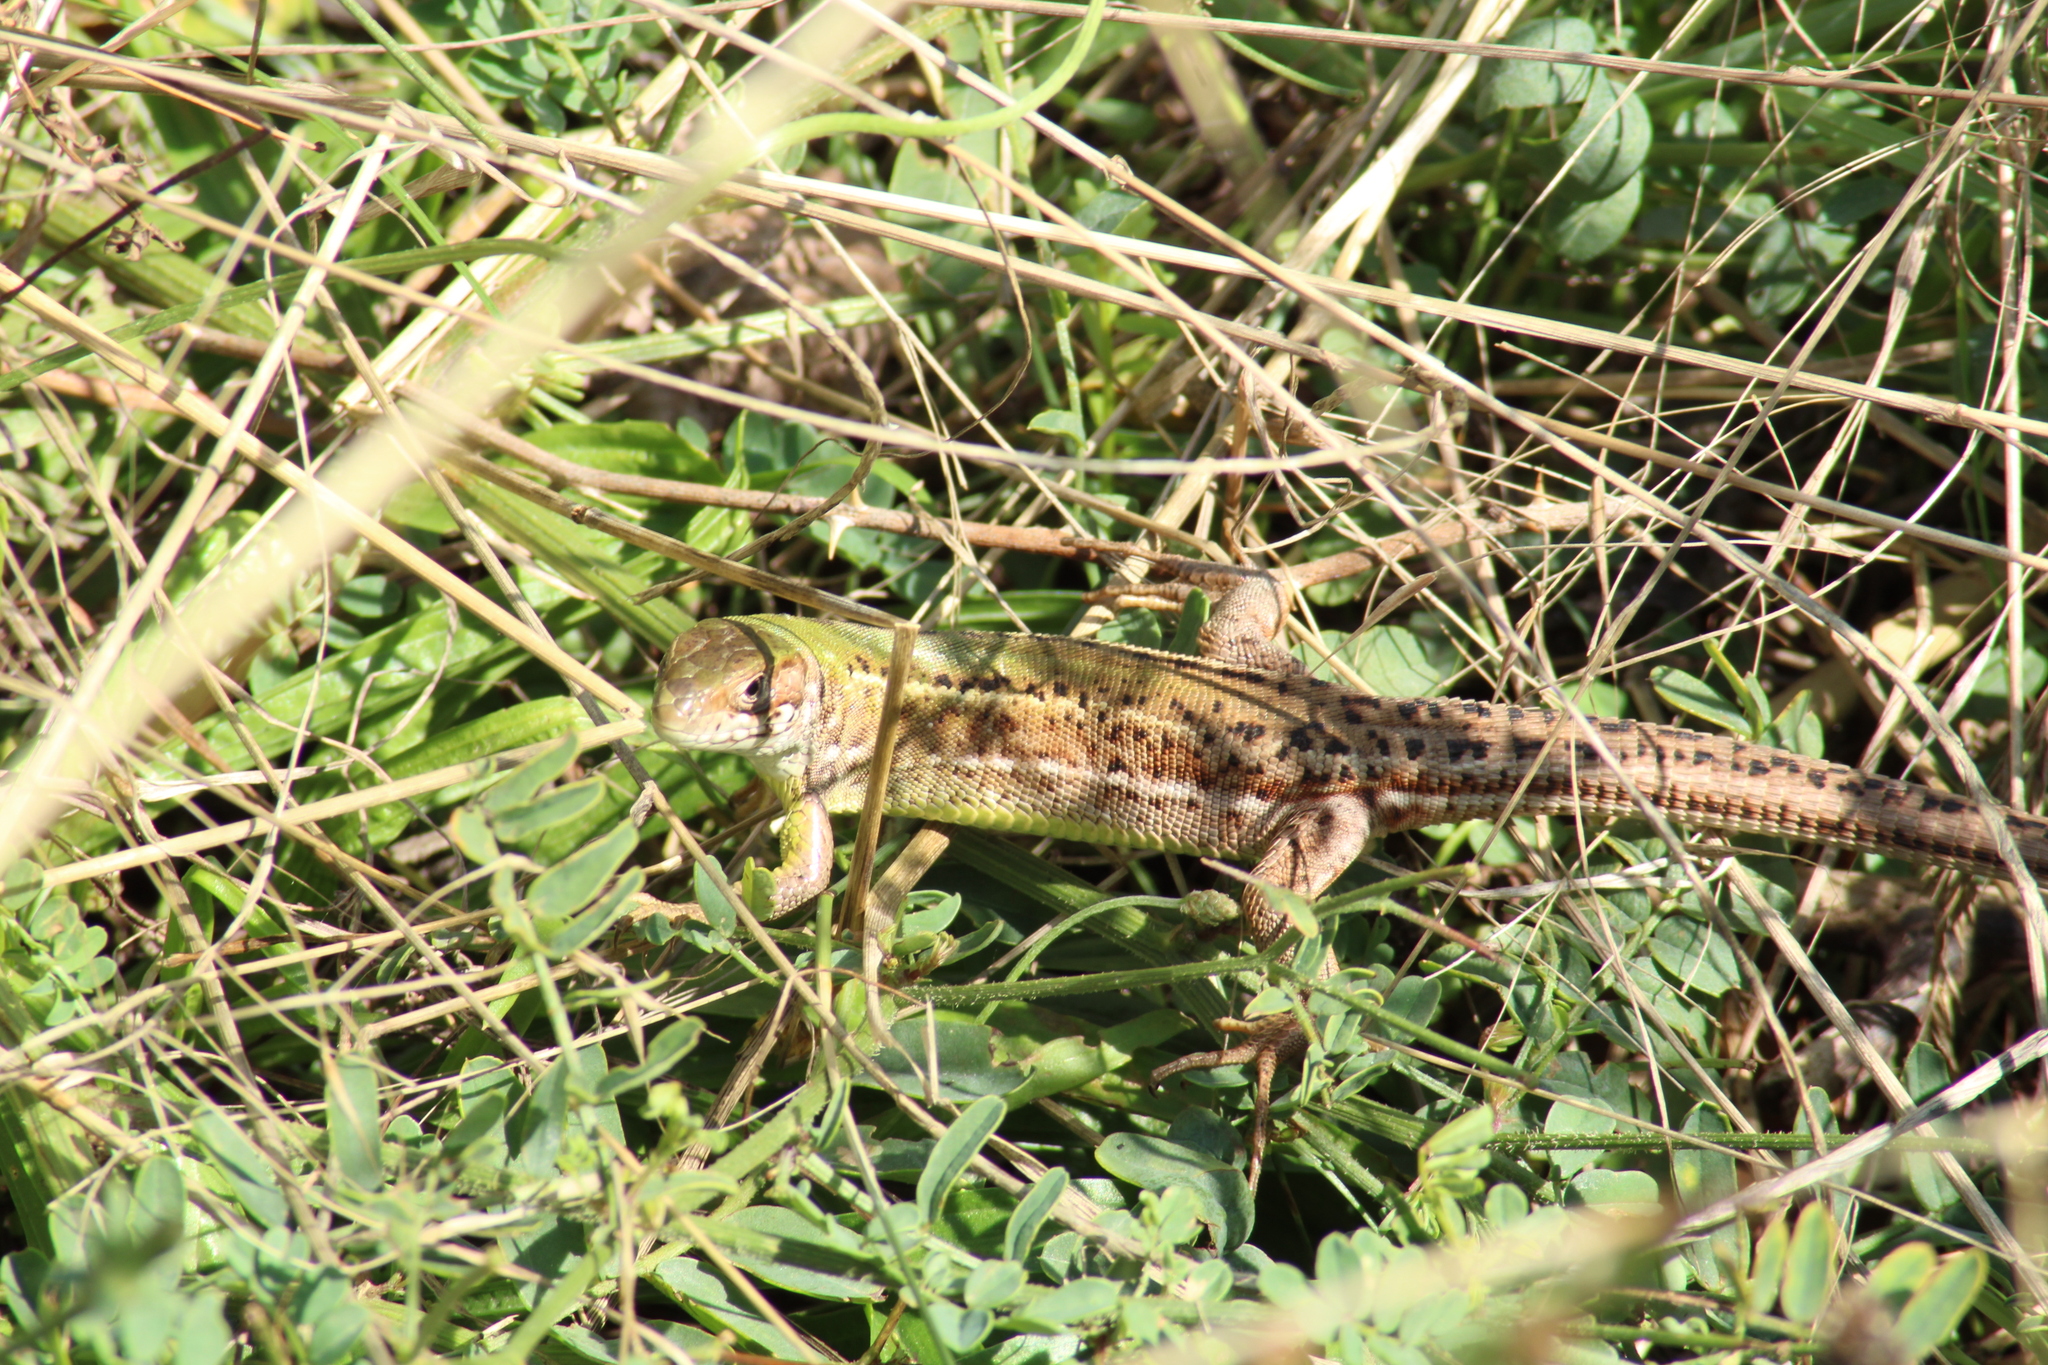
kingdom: Animalia
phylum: Chordata
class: Squamata
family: Lacertidae
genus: Lacerta
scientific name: Lacerta viridis
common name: European green lizard
